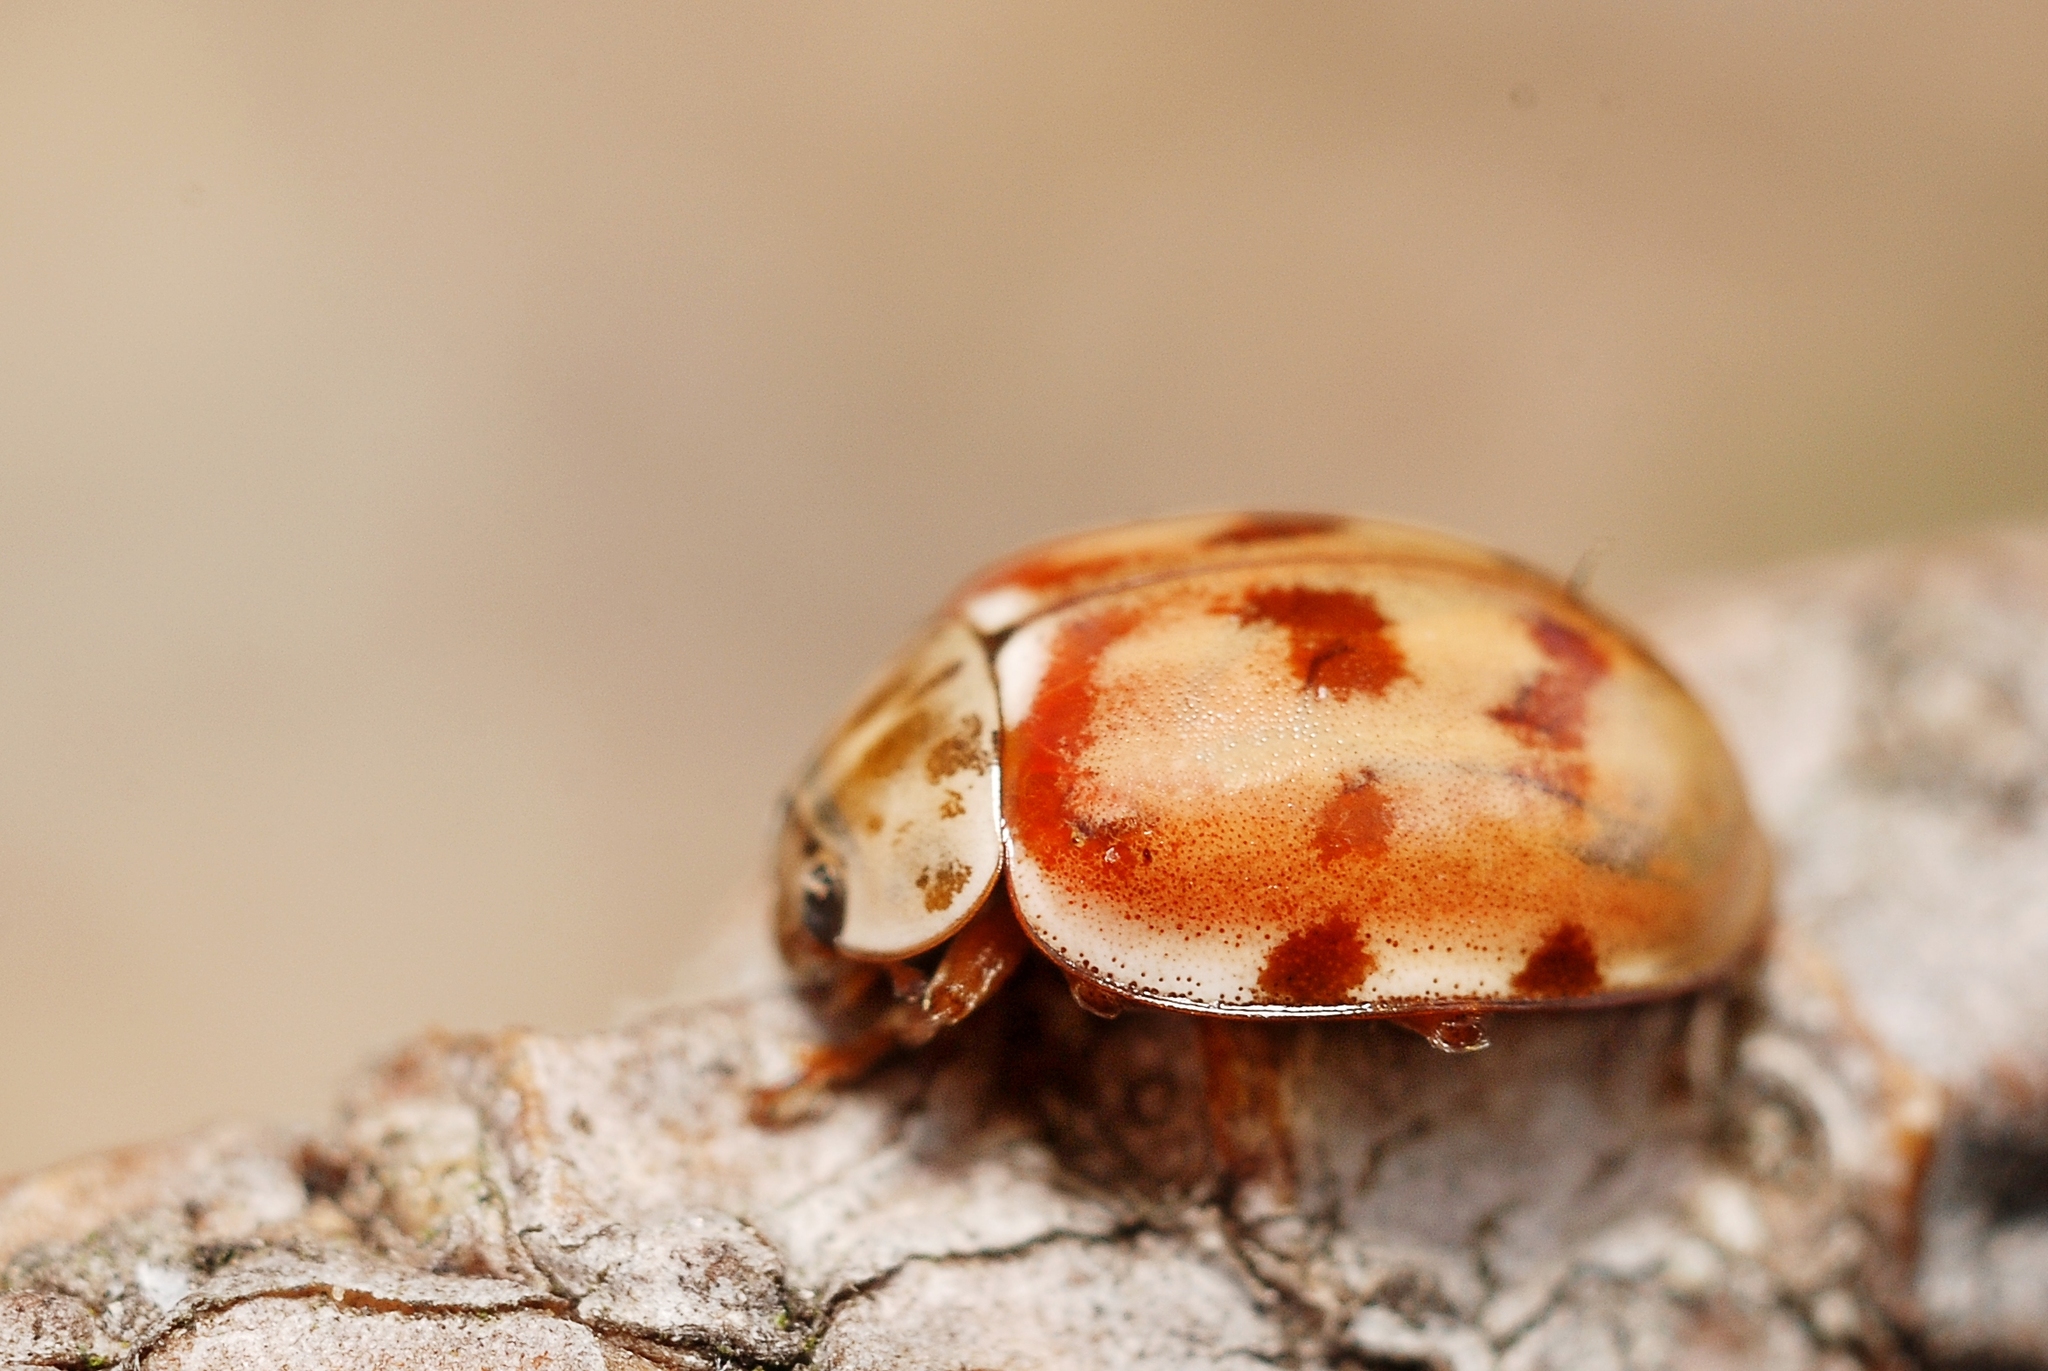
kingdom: Animalia
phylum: Arthropoda
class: Insecta
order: Coleoptera
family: Coccinellidae
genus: Harmonia
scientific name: Harmonia quadripunctata
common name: Cream-streaked ladybird
